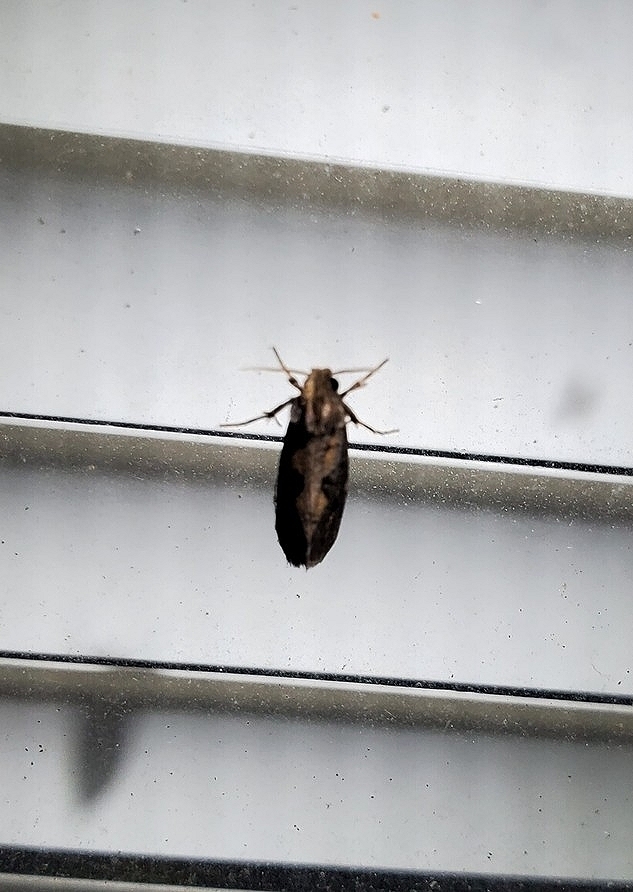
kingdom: Animalia
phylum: Arthropoda
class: Insecta
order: Lepidoptera
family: Tineidae
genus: Acrolophus
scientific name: Acrolophus popeanella
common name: Clemens' grass tubeworm moth
